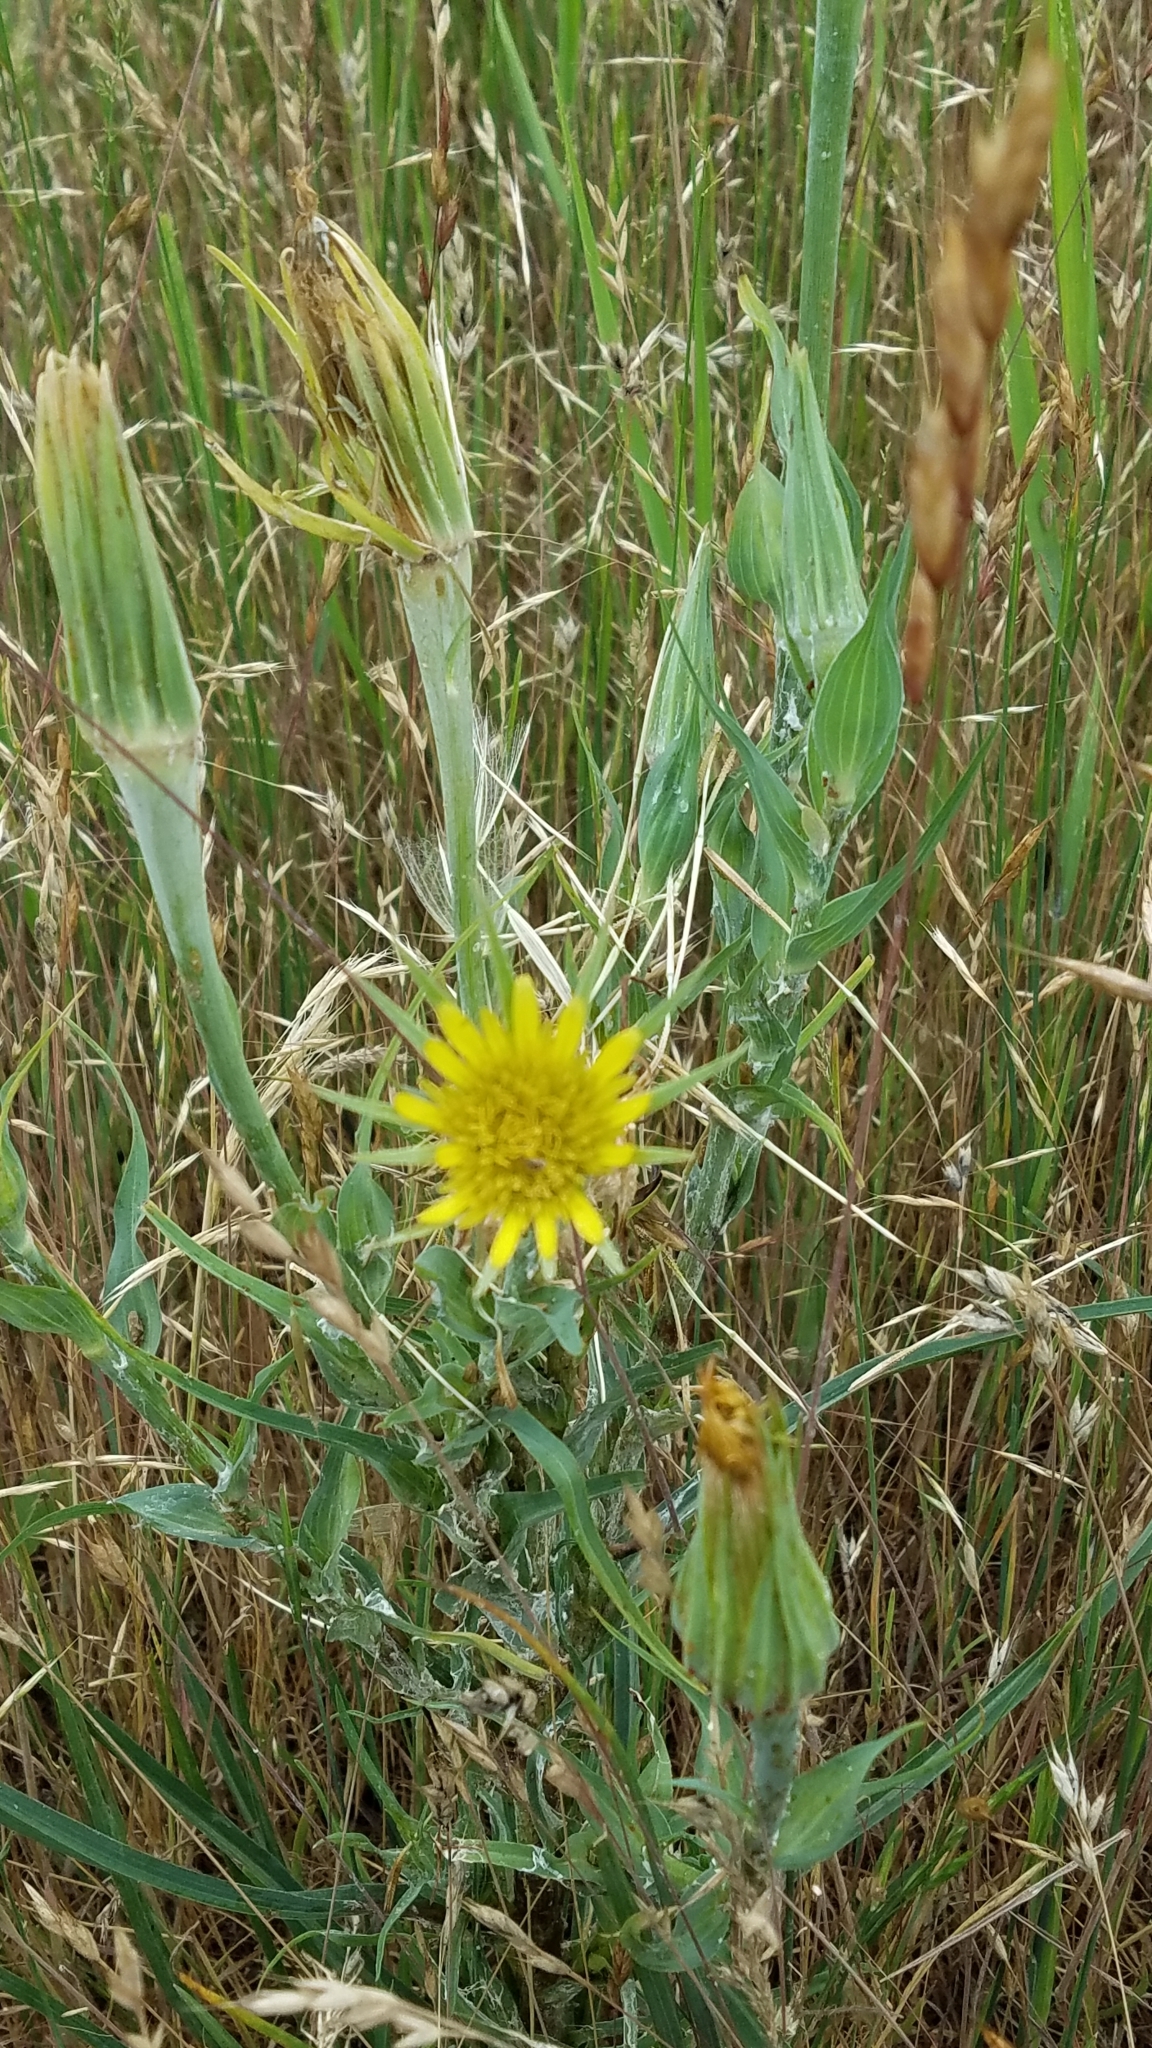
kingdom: Plantae
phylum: Tracheophyta
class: Magnoliopsida
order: Asterales
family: Asteraceae
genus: Tragopogon
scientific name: Tragopogon dubius
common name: Yellow salsify
